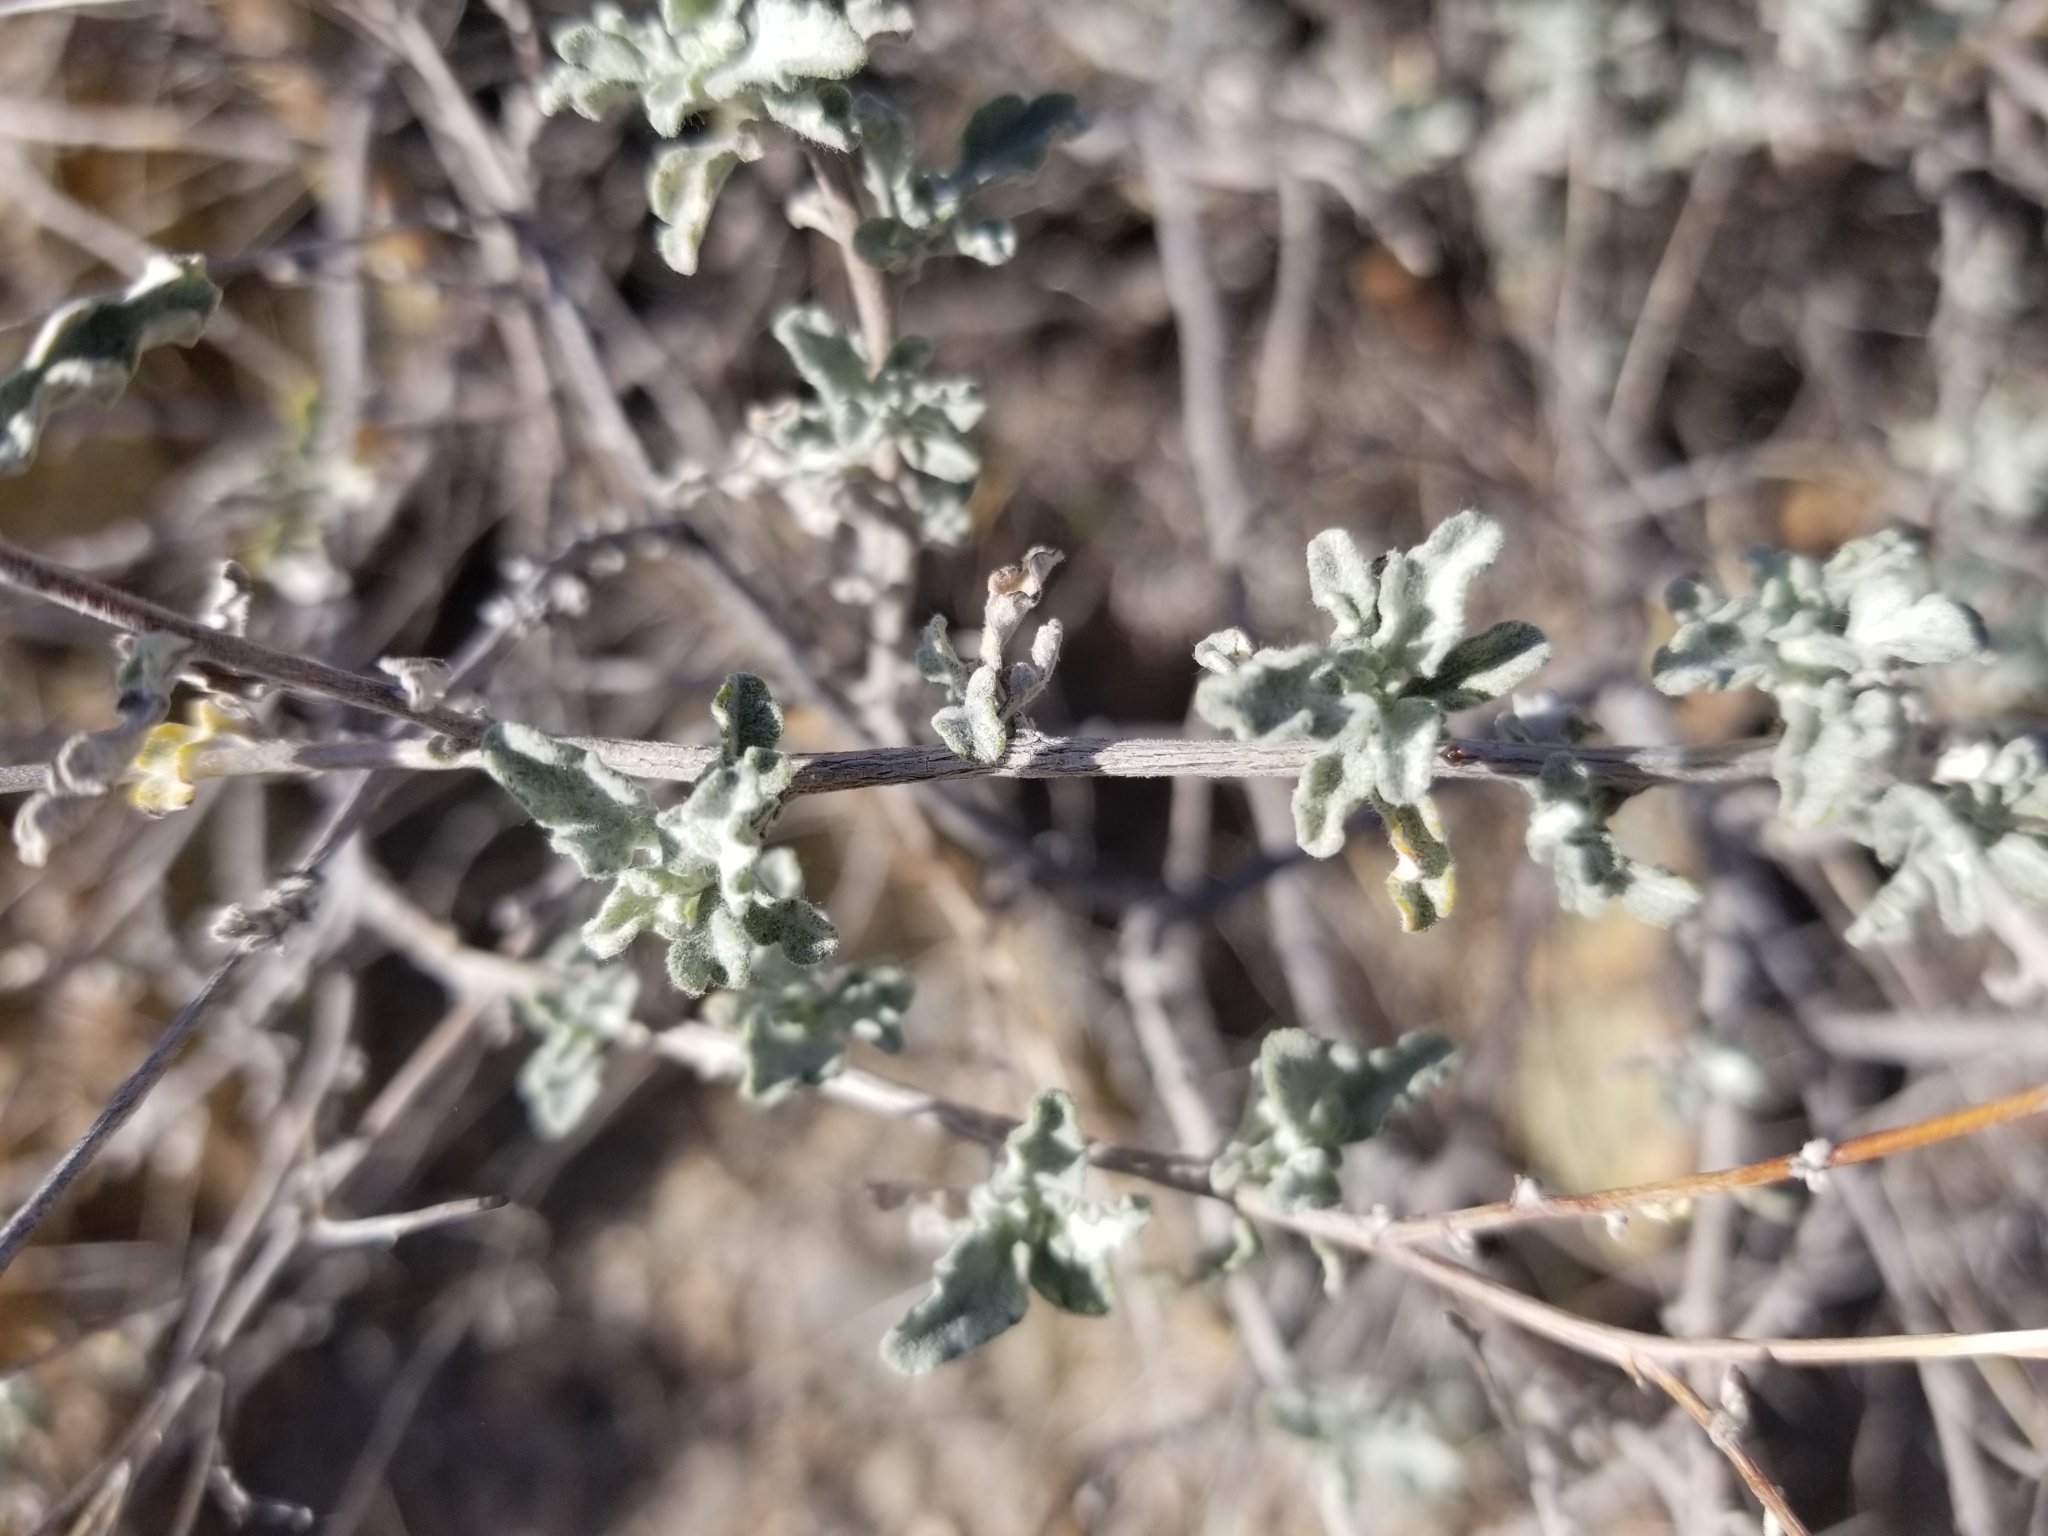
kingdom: Plantae
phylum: Tracheophyta
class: Magnoliopsida
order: Asterales
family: Asteraceae
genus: Parthenium
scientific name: Parthenium incanum
